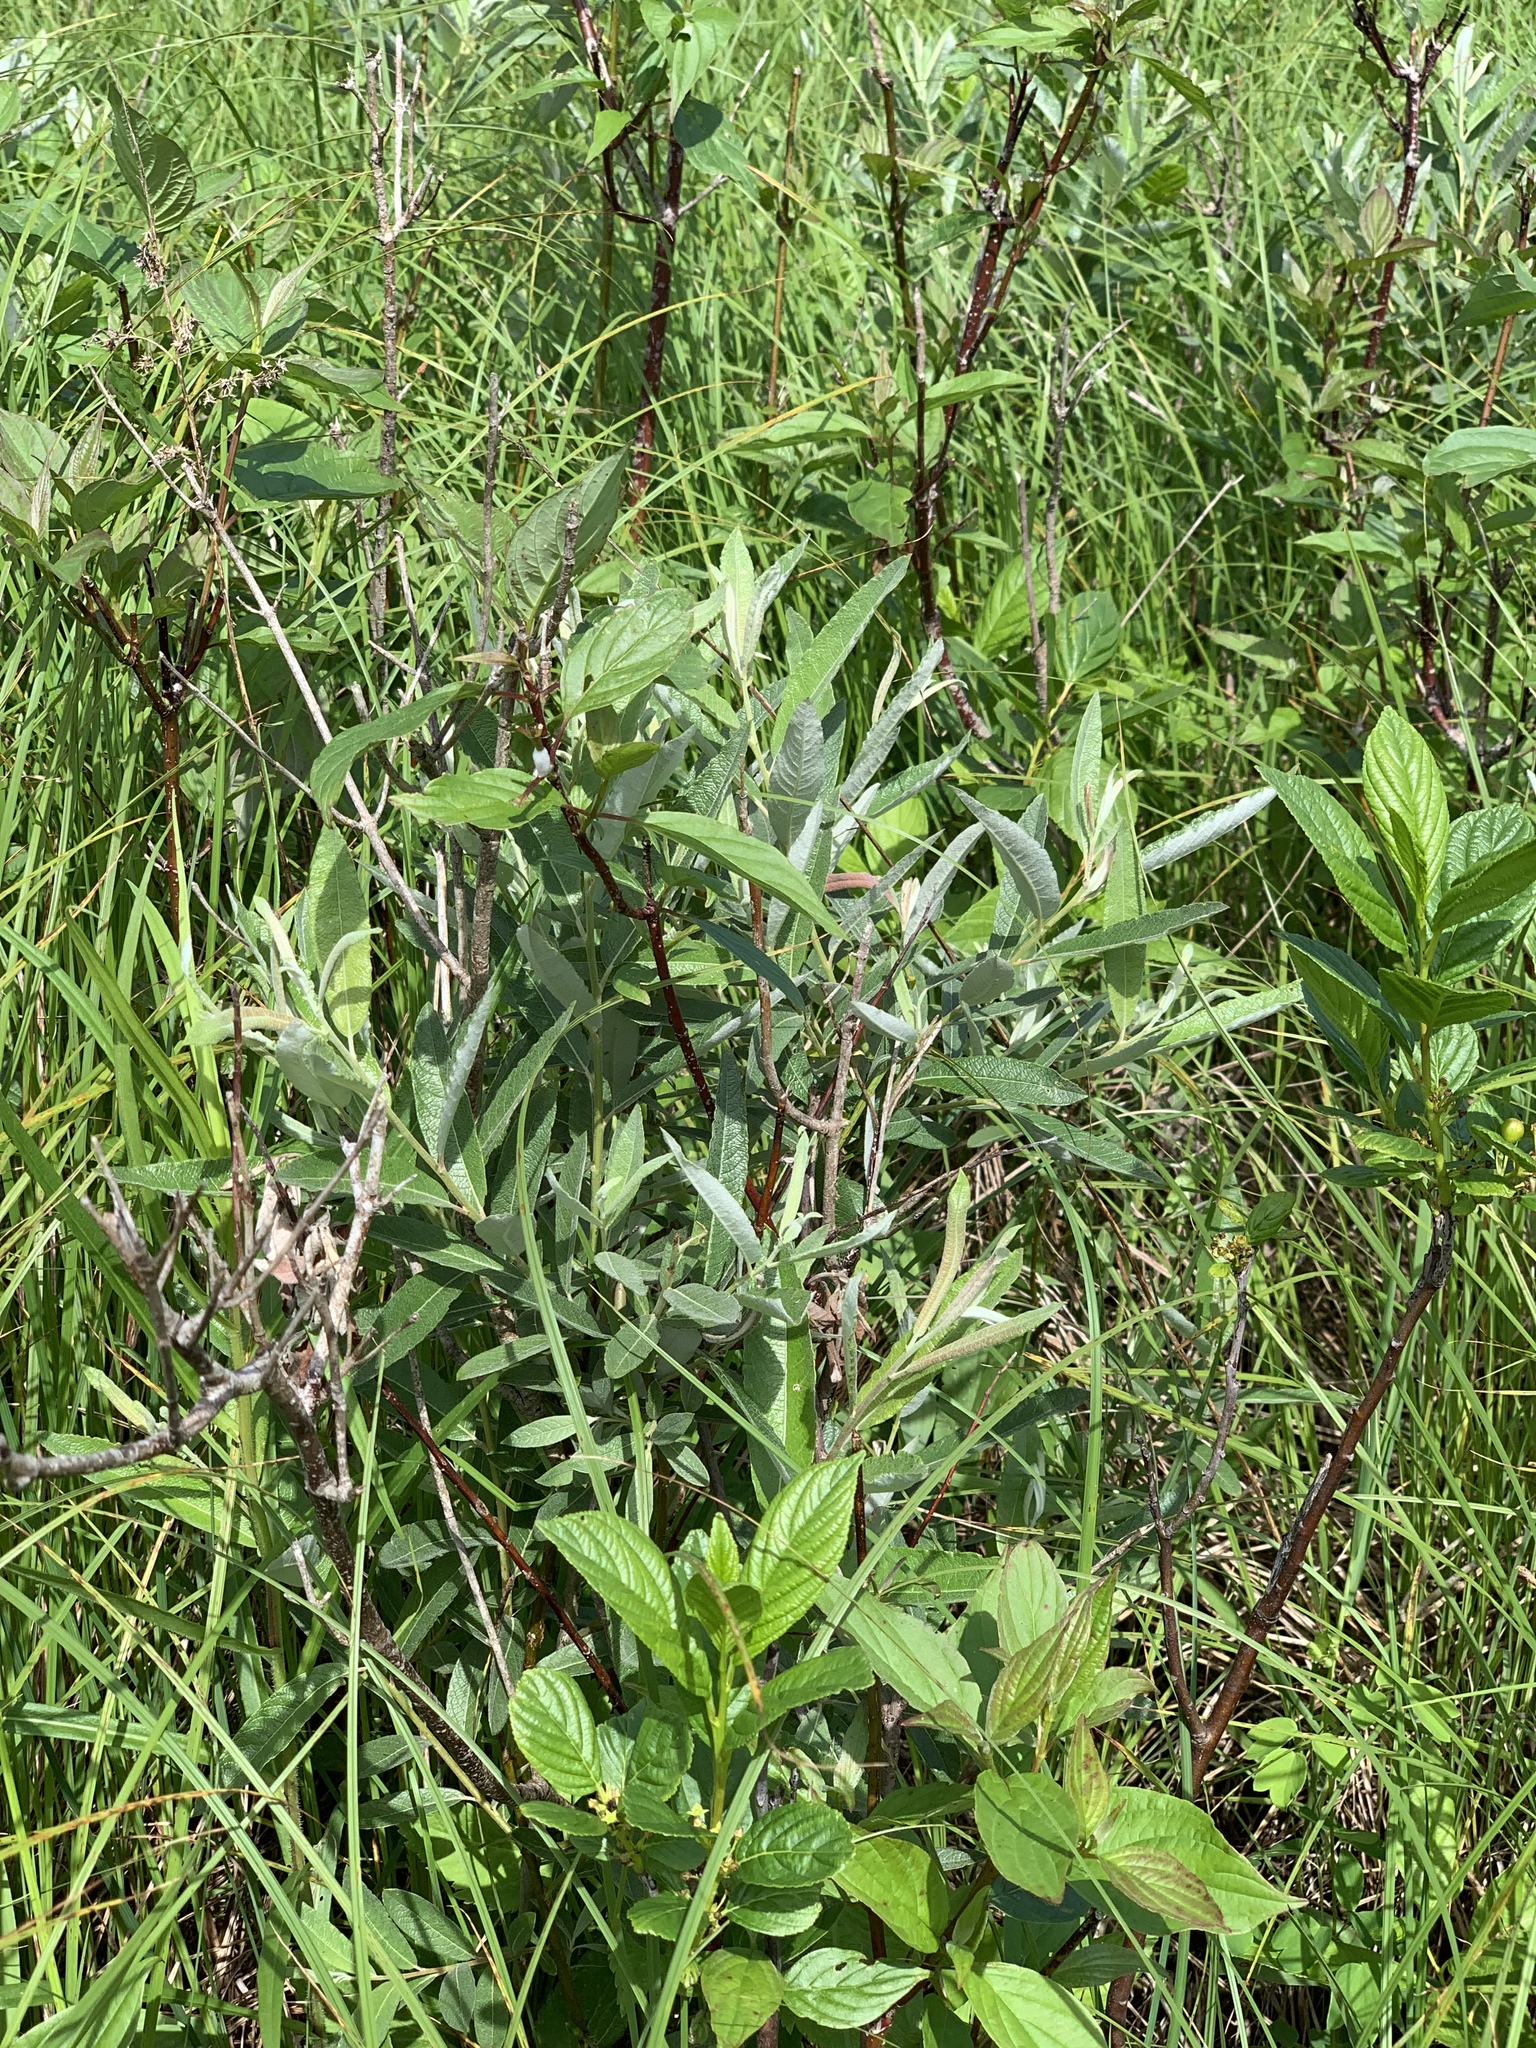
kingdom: Plantae
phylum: Tracheophyta
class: Magnoliopsida
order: Malpighiales
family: Salicaceae
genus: Salix
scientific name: Salix candida
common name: Hoary willow
